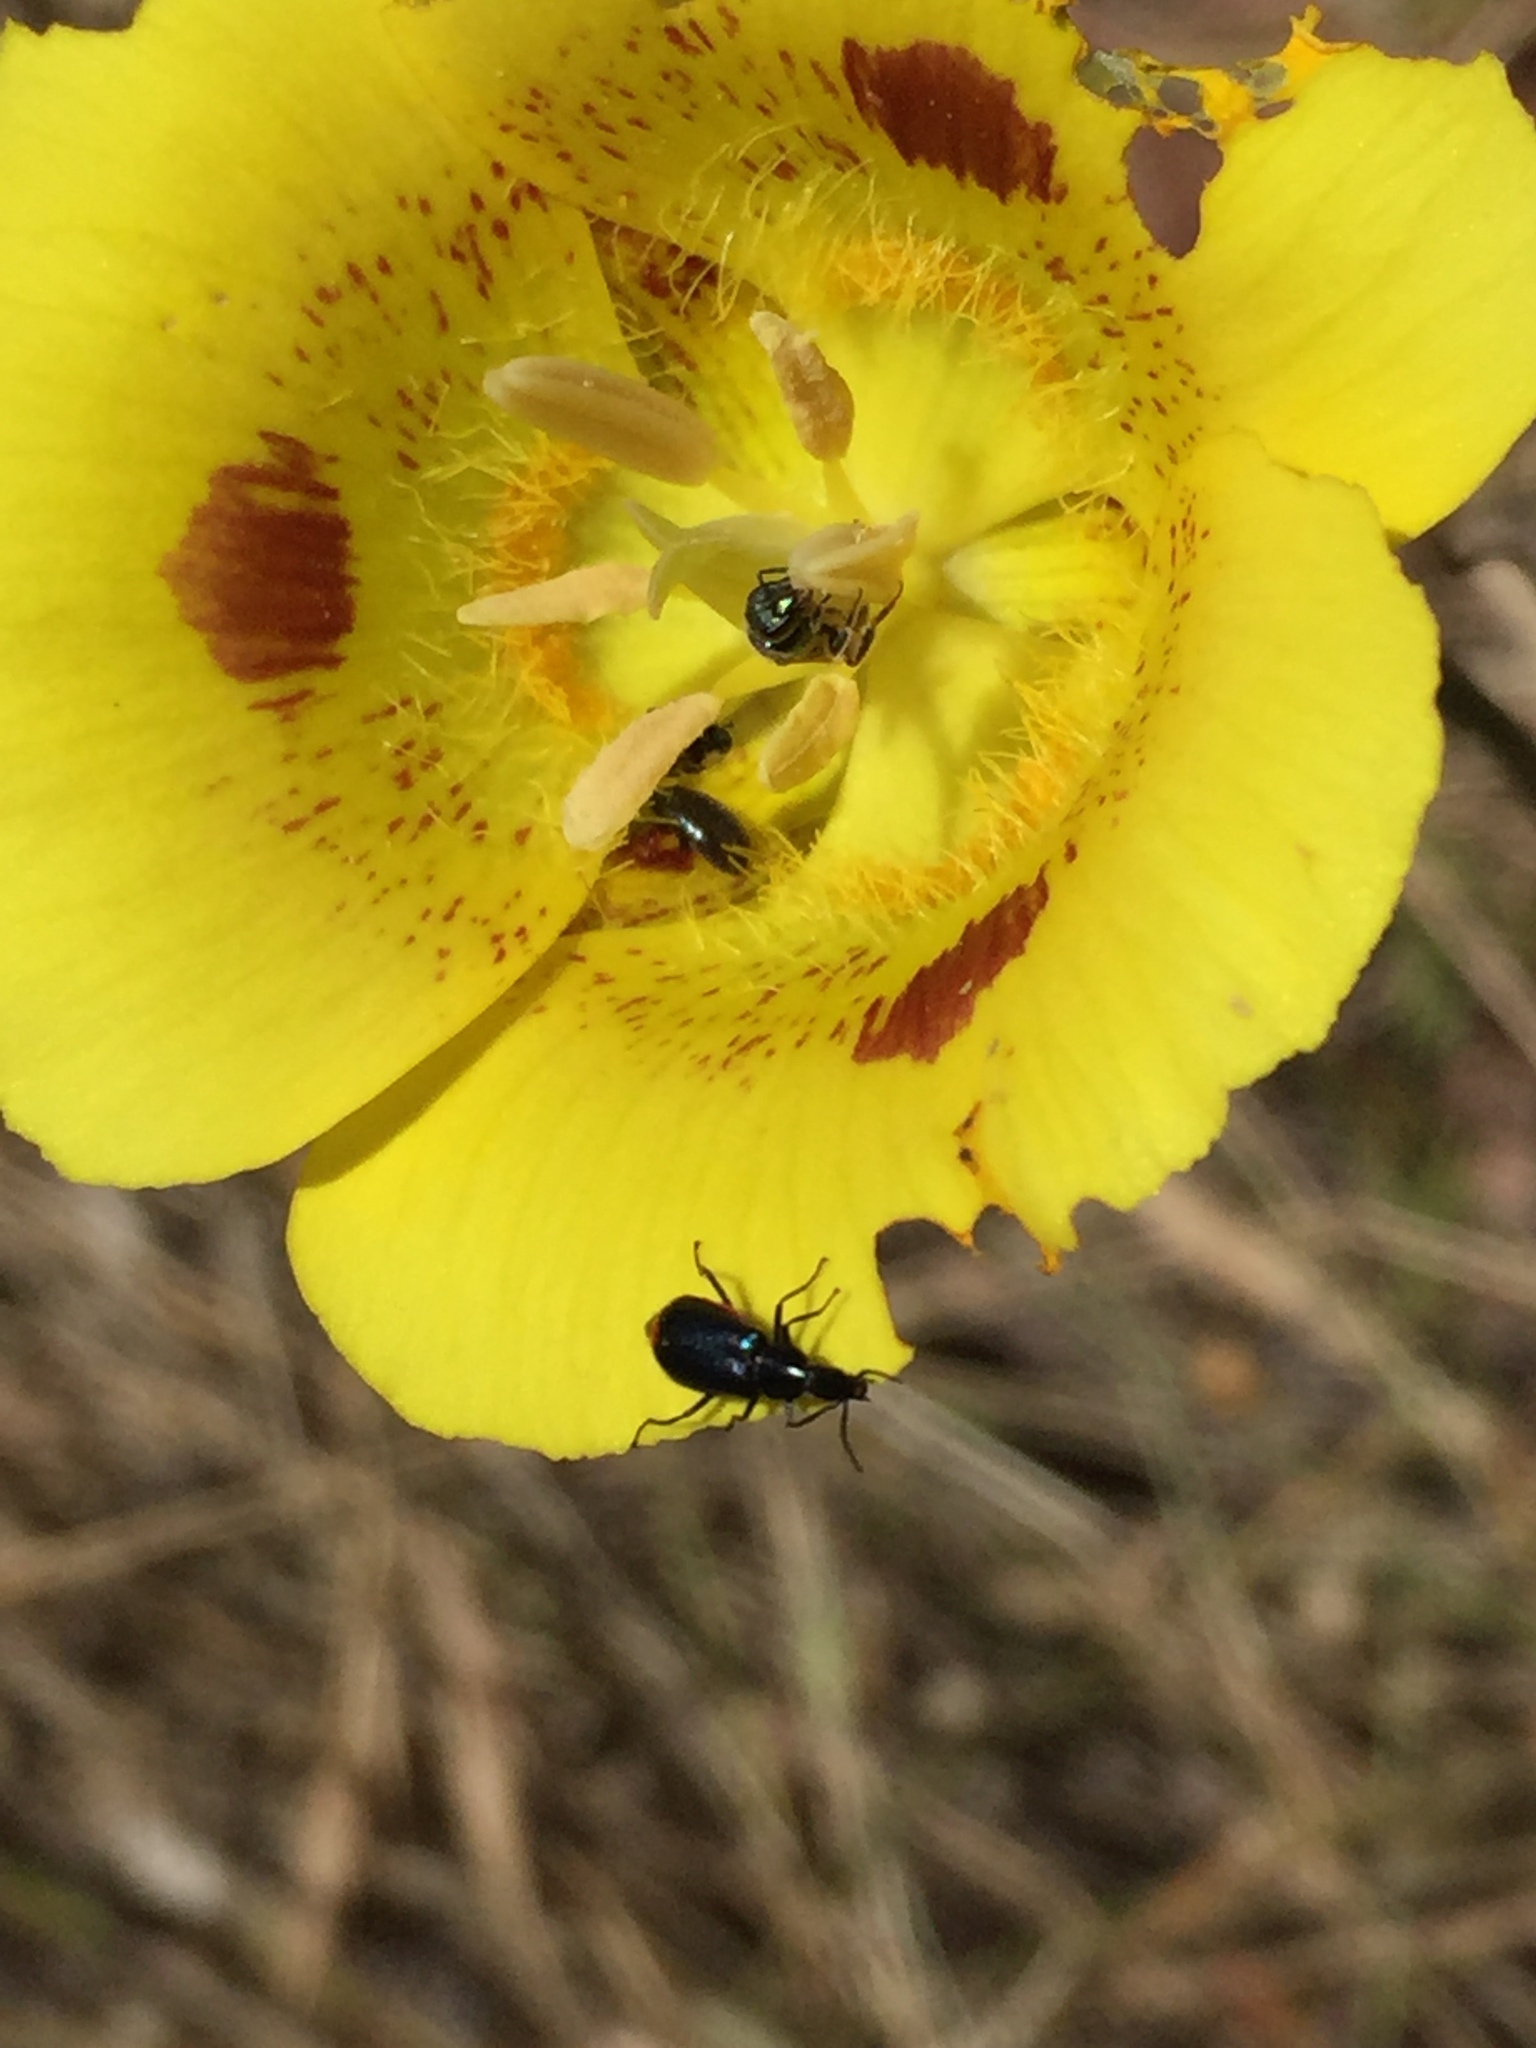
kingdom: Plantae
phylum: Tracheophyta
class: Liliopsida
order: Liliales
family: Liliaceae
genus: Calochortus
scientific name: Calochortus luteus
